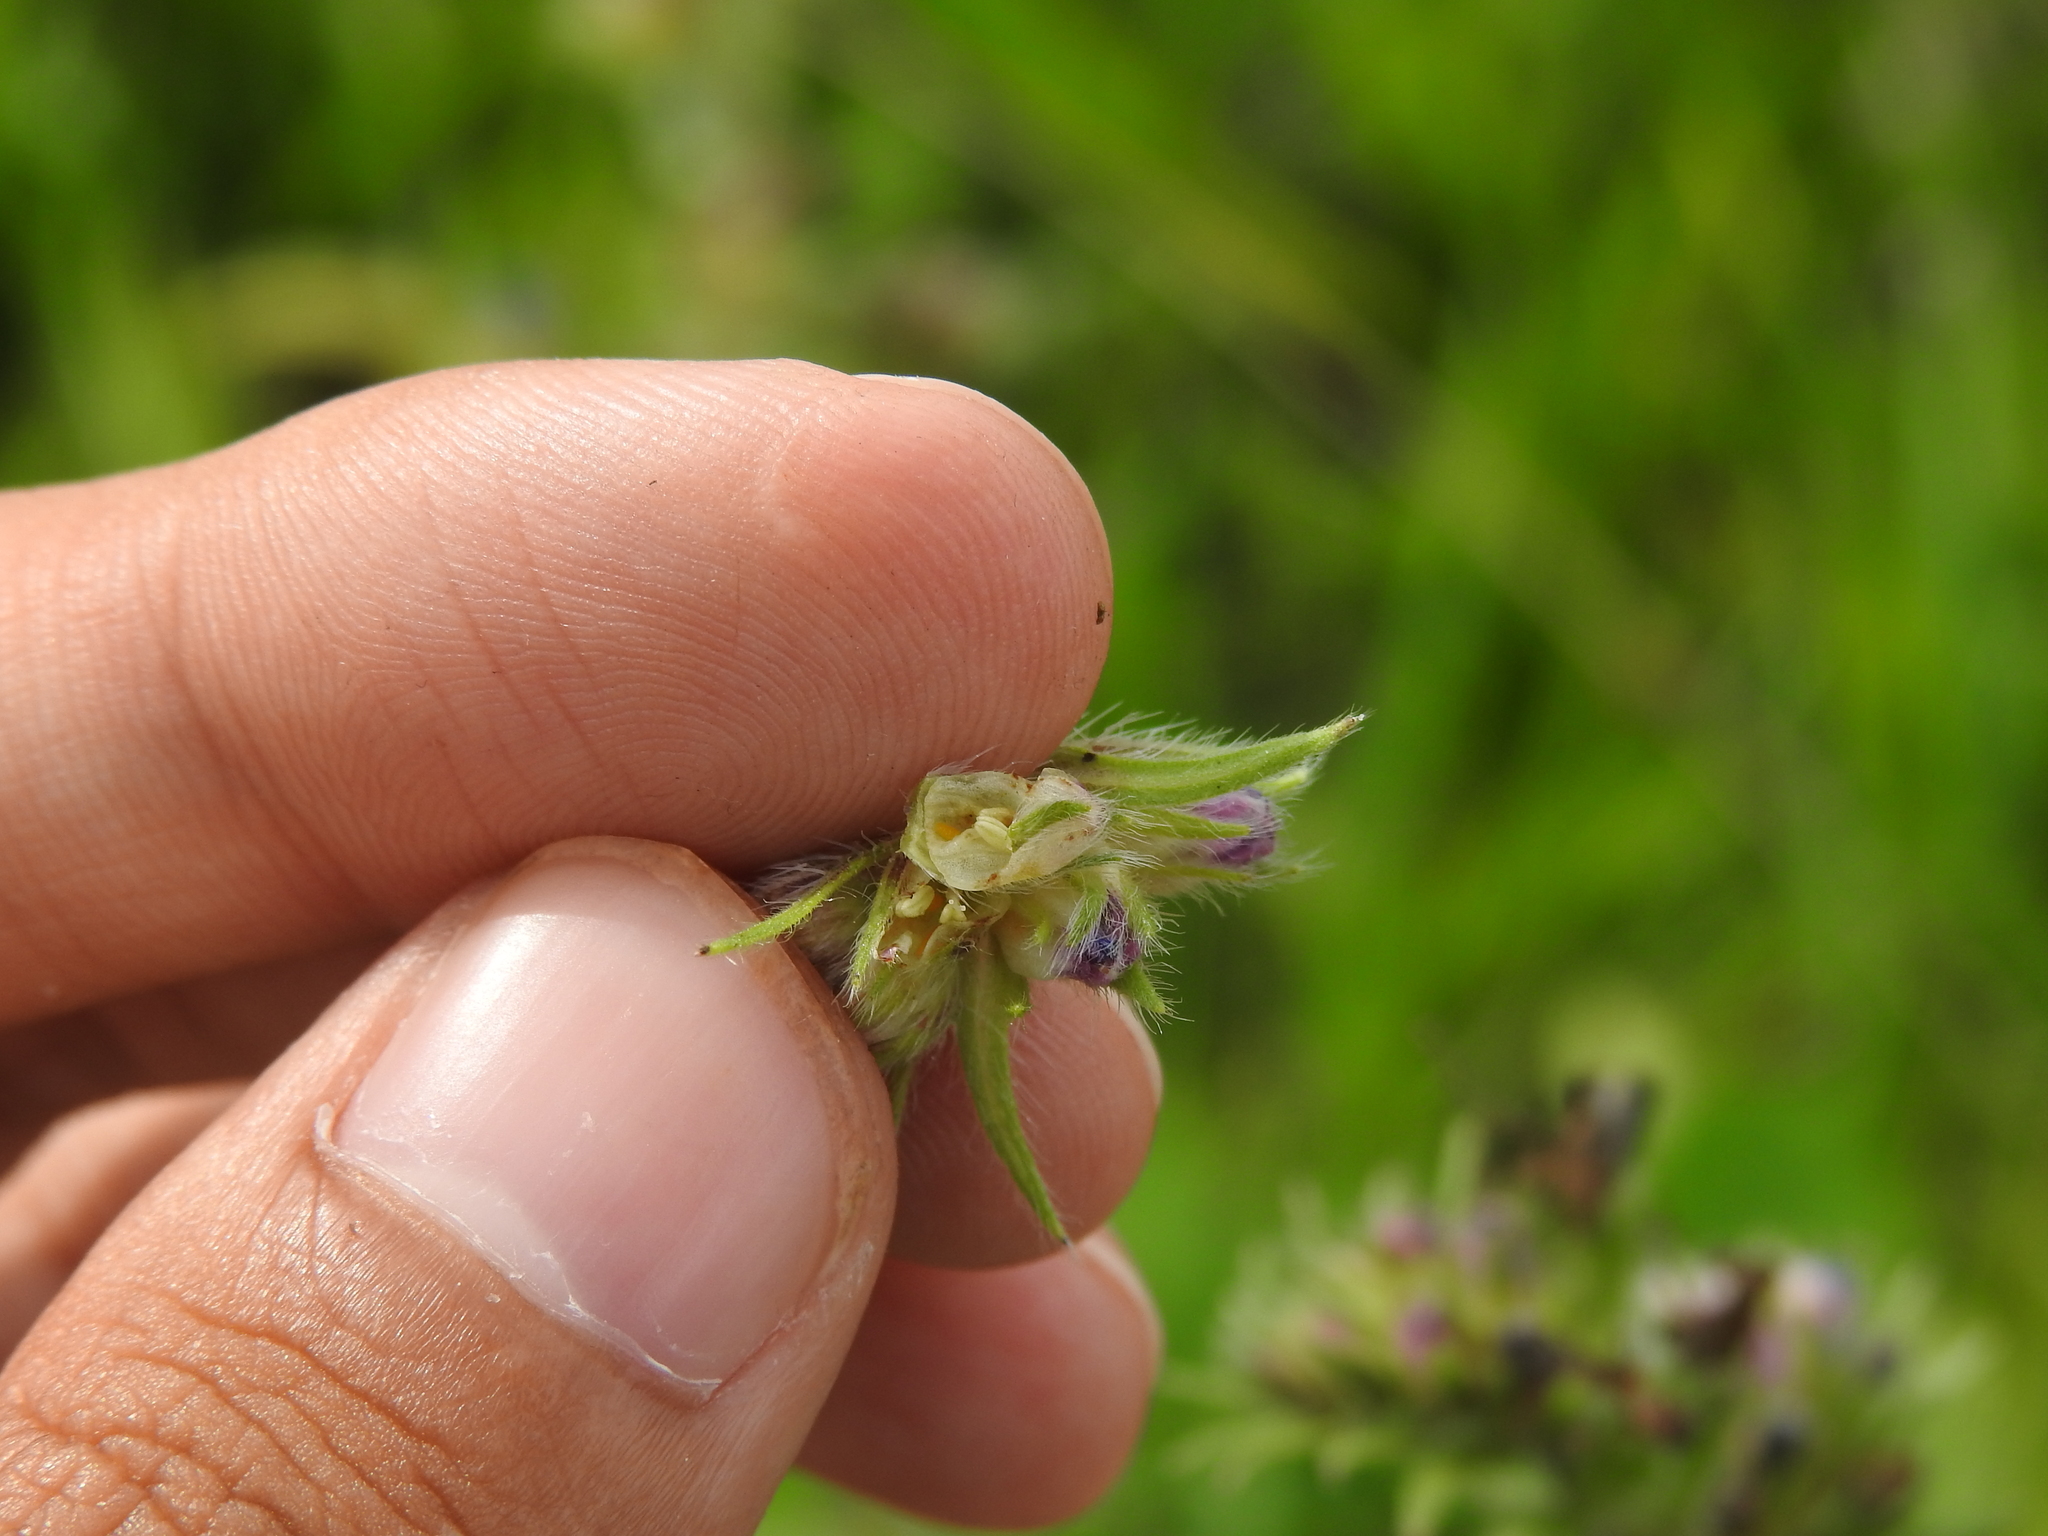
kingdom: Animalia
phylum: Arthropoda
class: Insecta
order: Diptera
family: Cecidomyiidae
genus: Contarinia
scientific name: Contarinia echii
